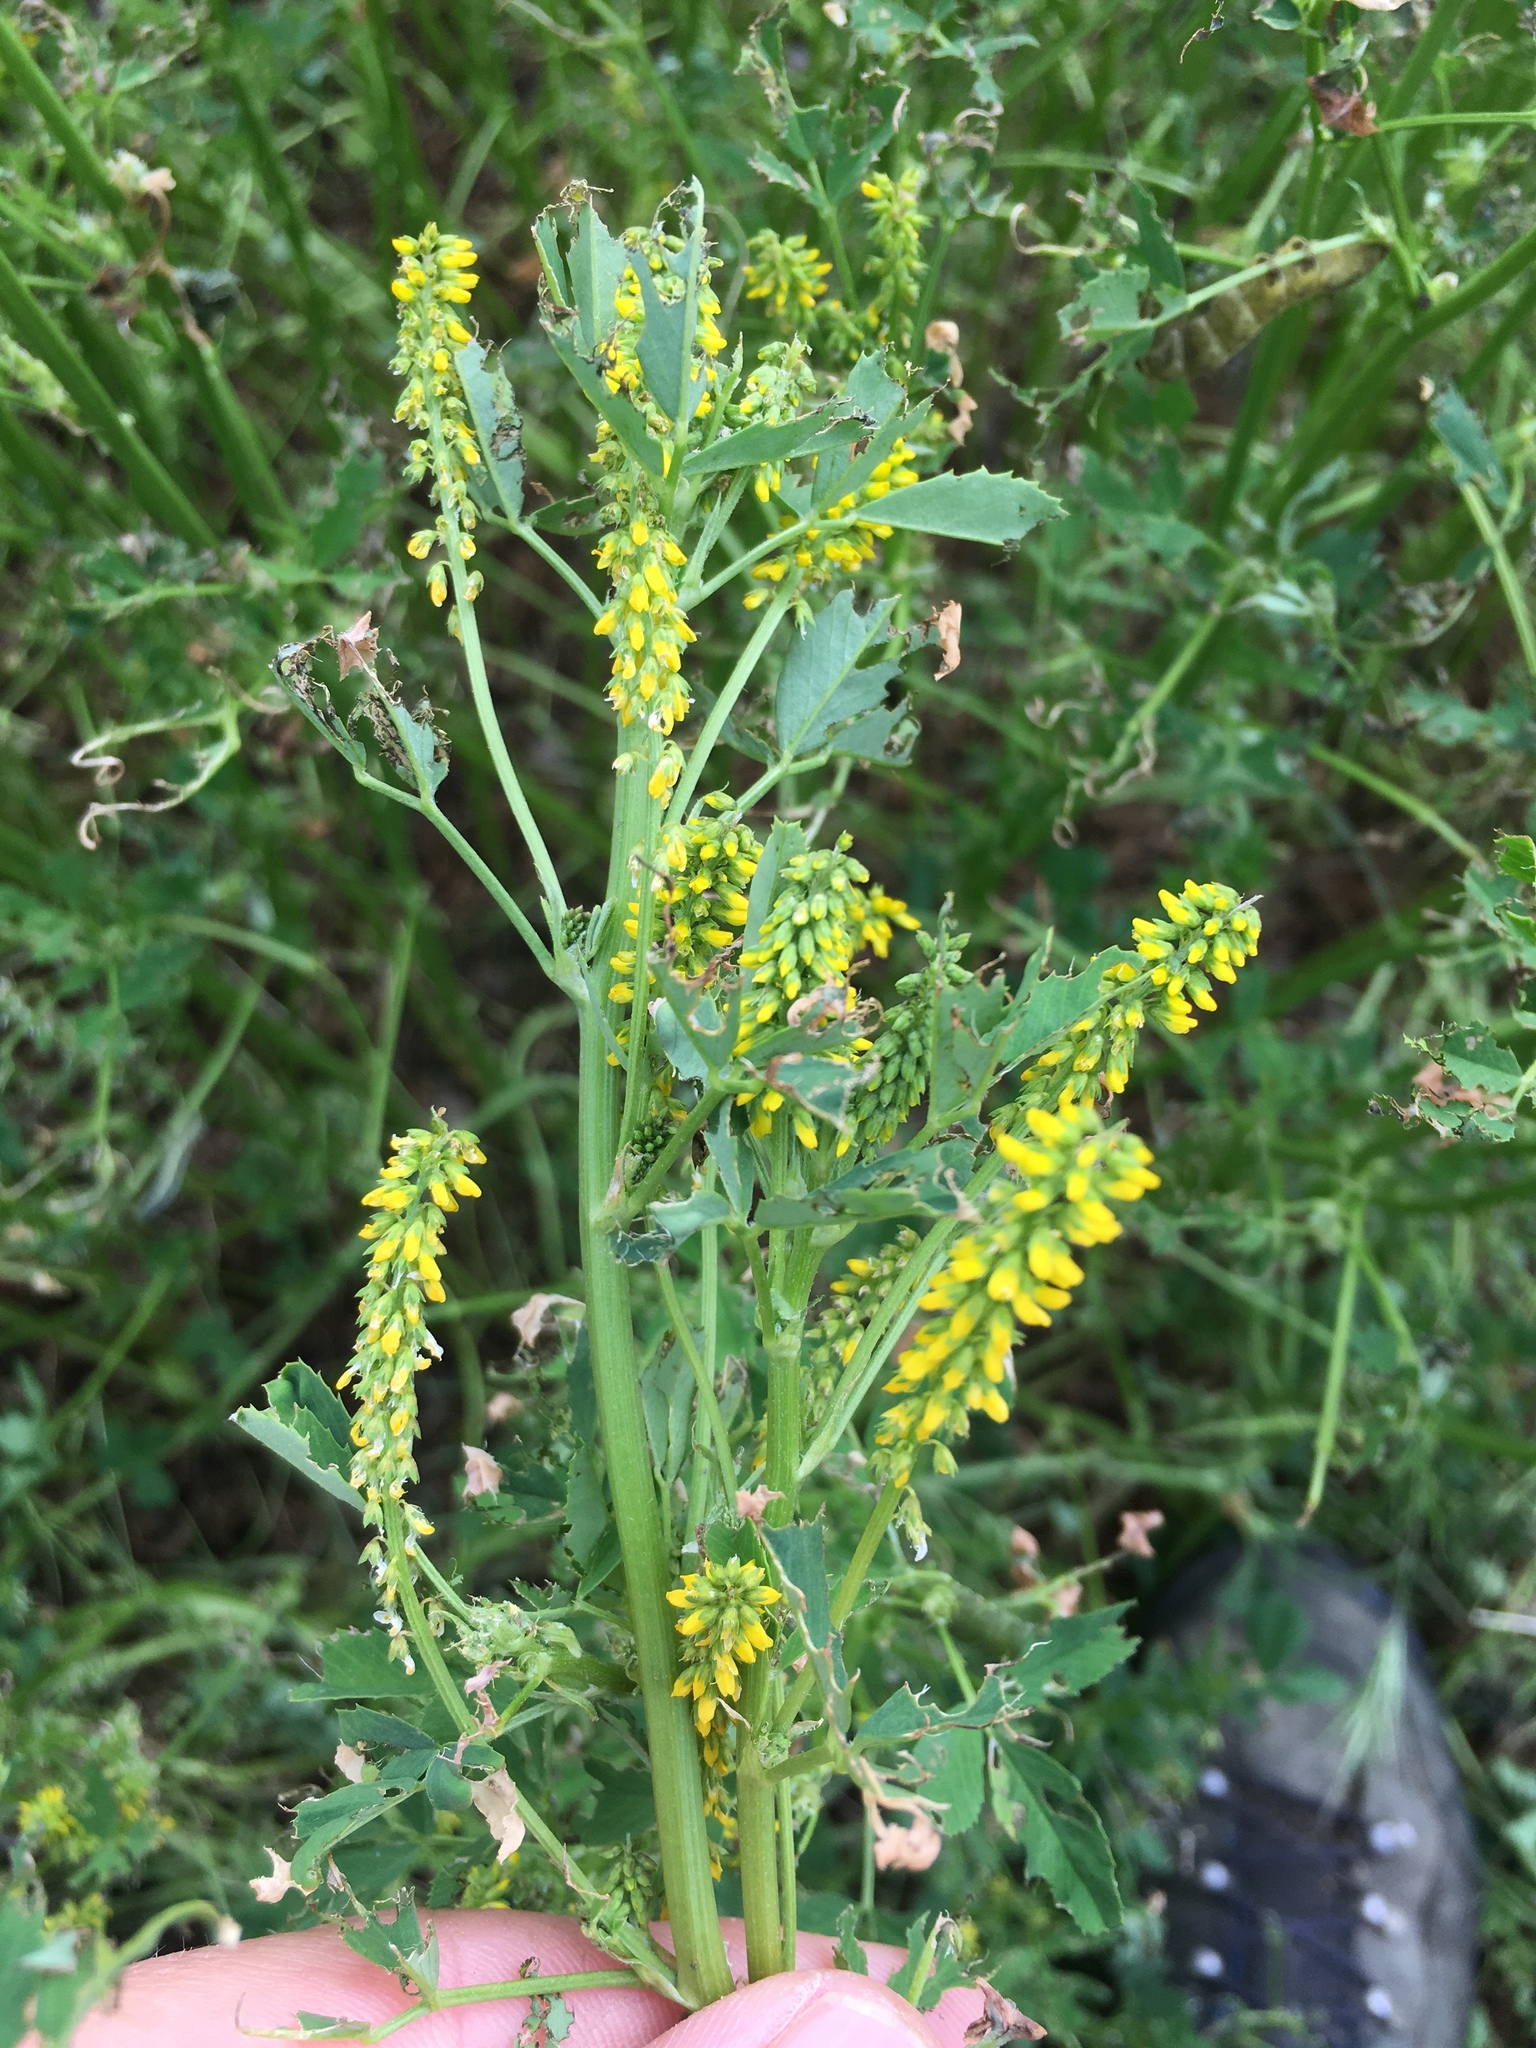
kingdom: Plantae
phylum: Tracheophyta
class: Magnoliopsida
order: Fabales
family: Fabaceae
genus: Melilotus
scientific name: Melilotus indicus
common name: Small melilot
